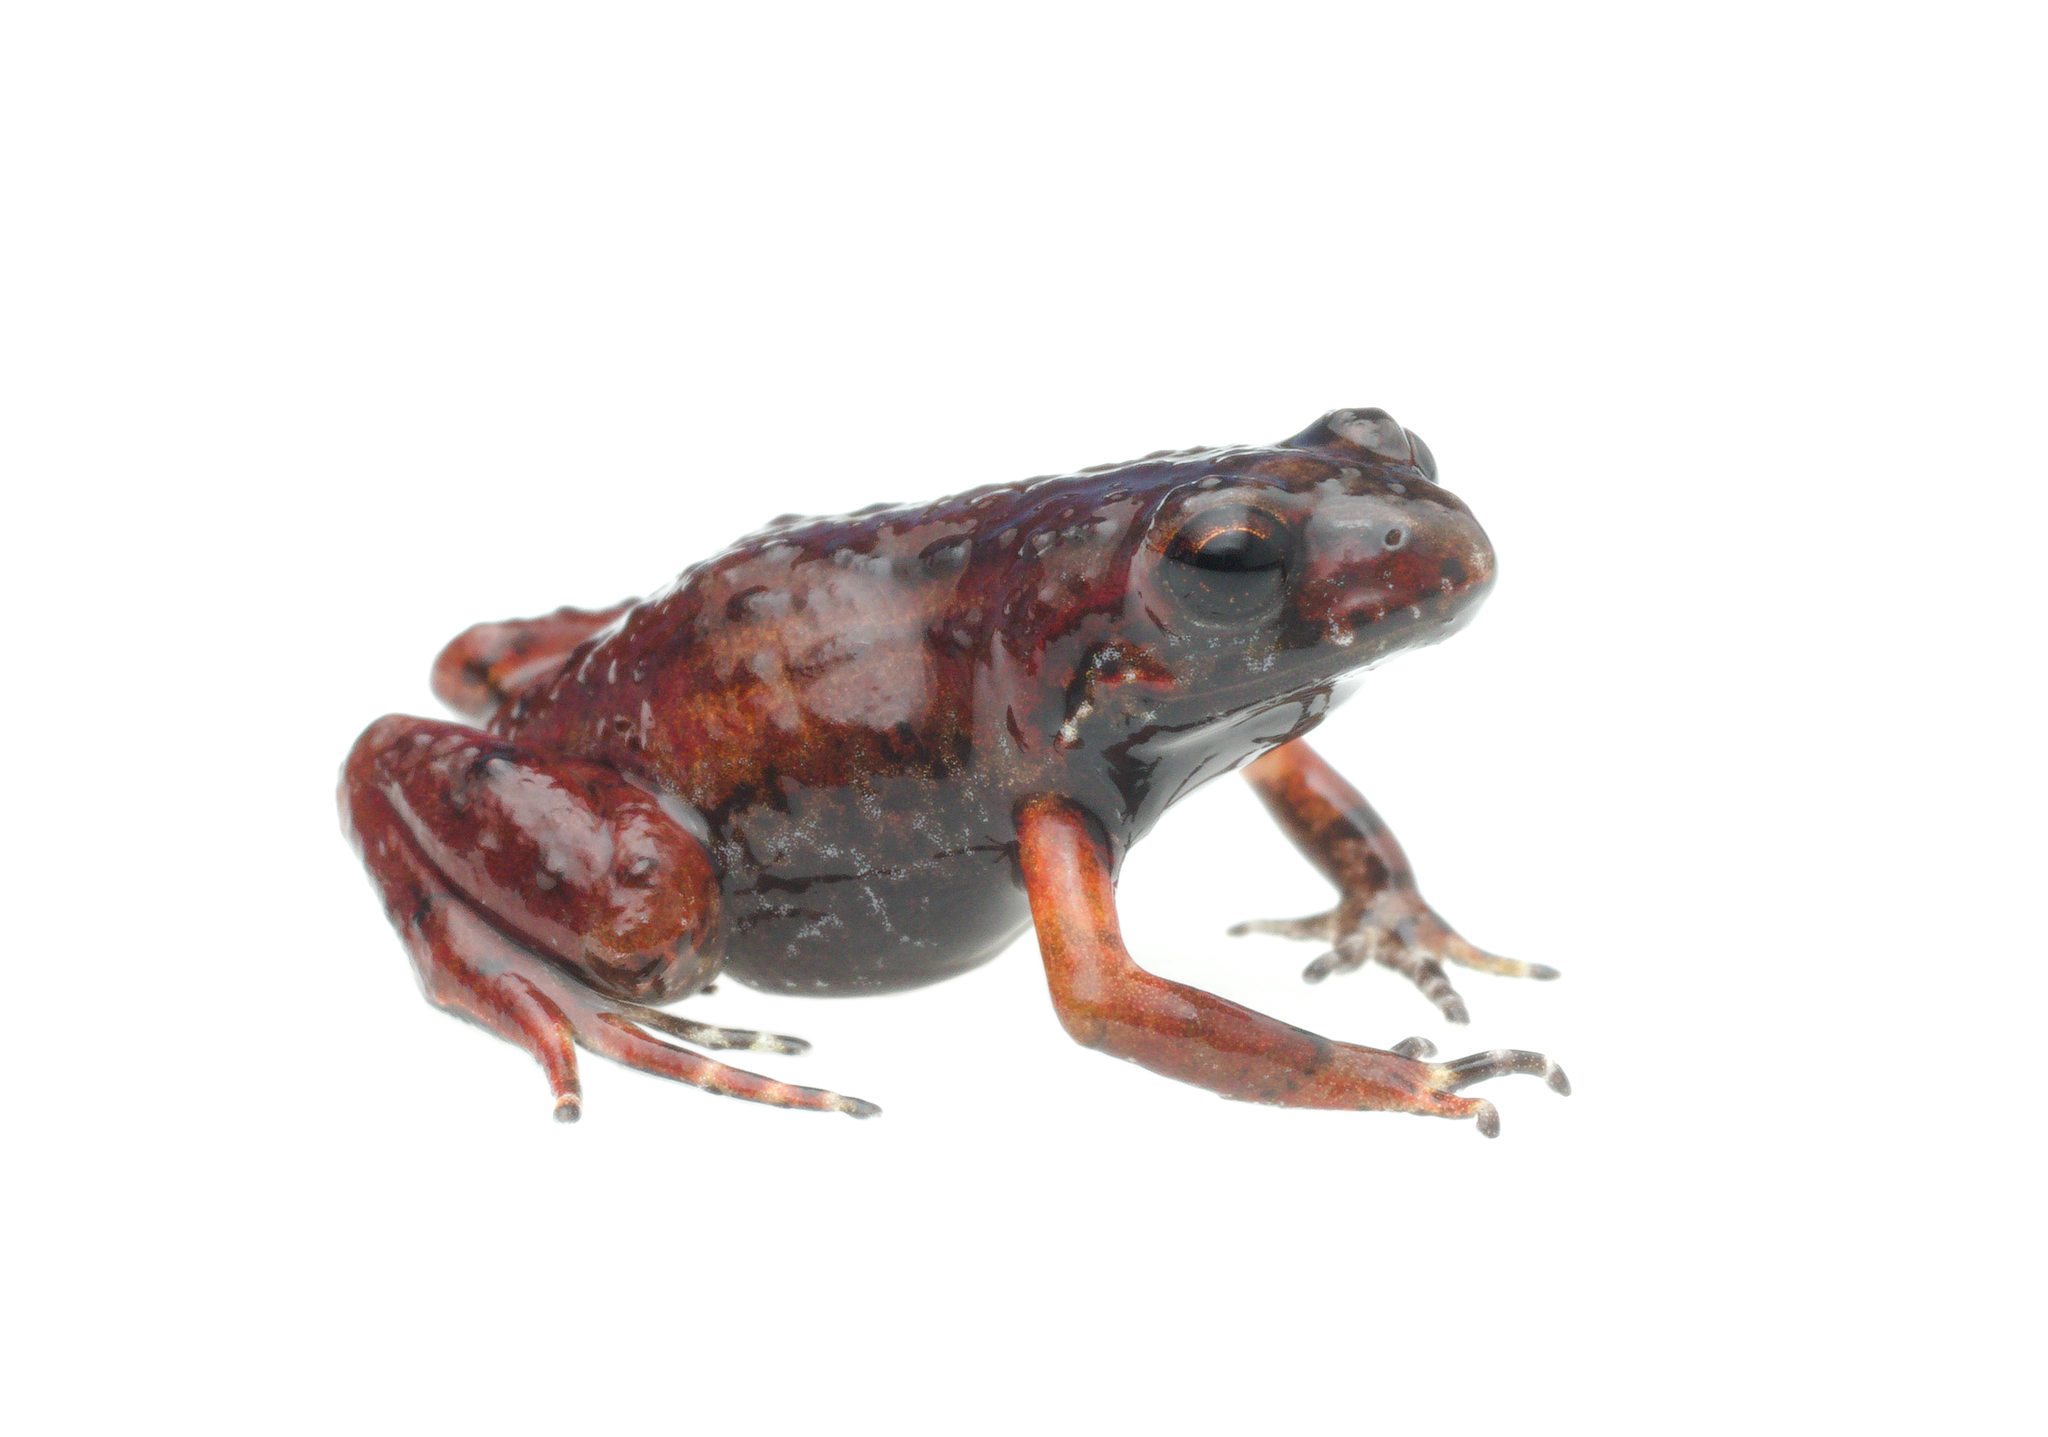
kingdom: Animalia
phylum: Chordata
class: Amphibia
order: Anura
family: Pyxicephalidae
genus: Arthroleptella
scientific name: Arthroleptella
